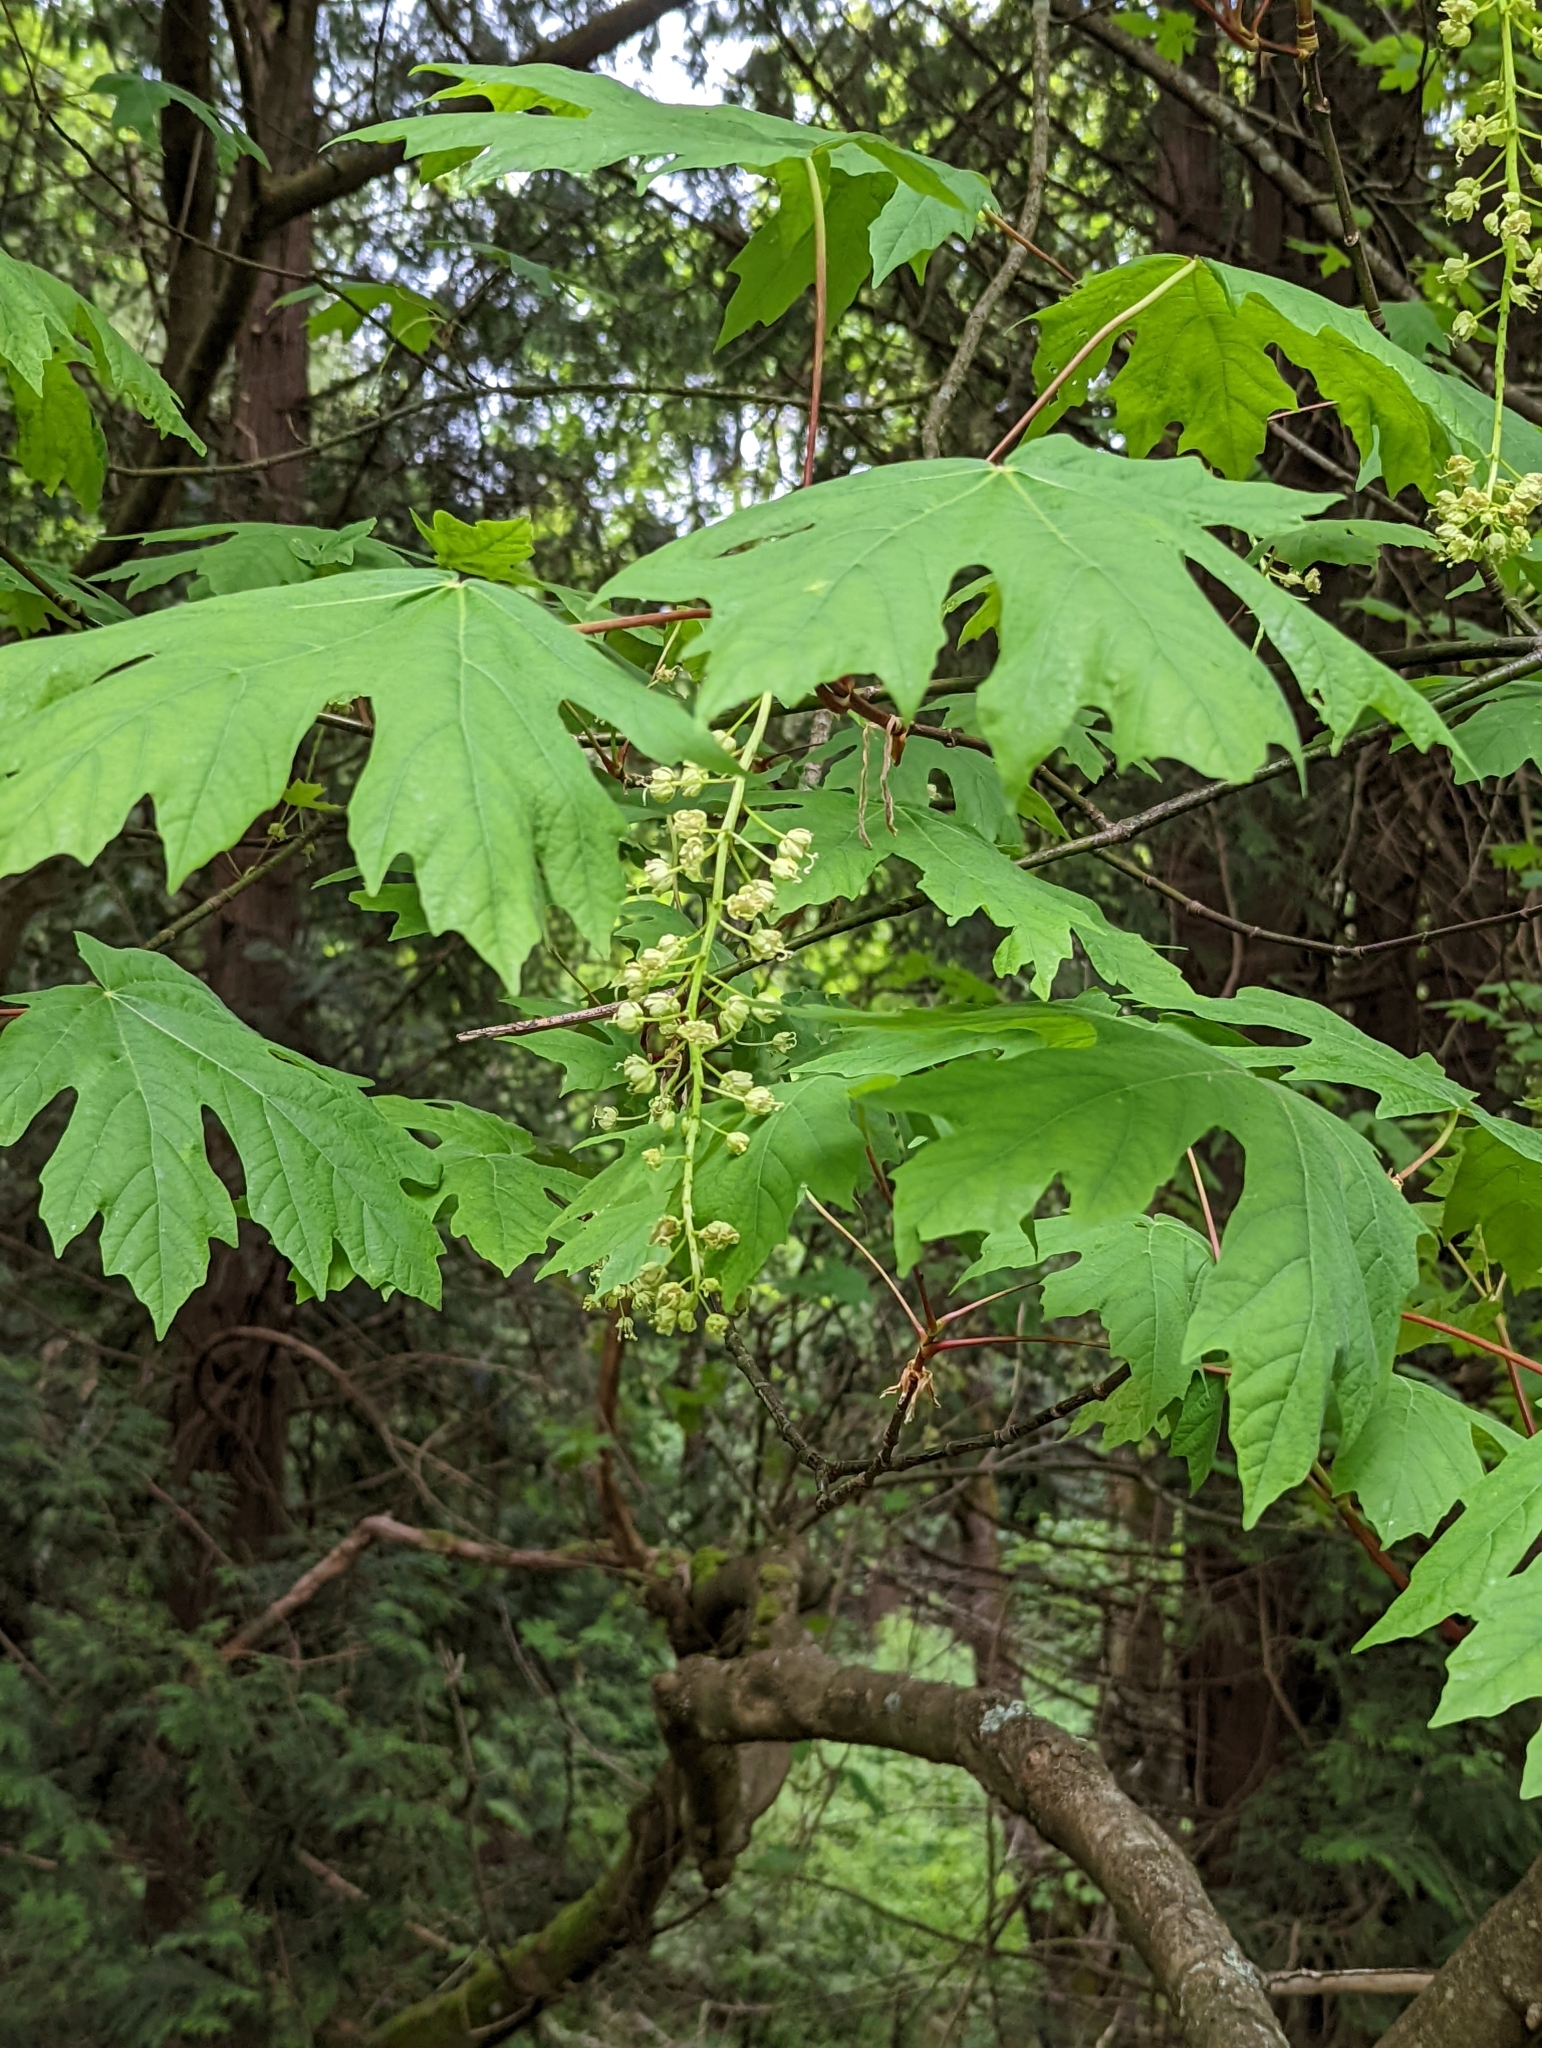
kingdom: Plantae
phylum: Tracheophyta
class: Magnoliopsida
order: Sapindales
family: Sapindaceae
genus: Acer
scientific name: Acer macrophyllum
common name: Oregon maple
